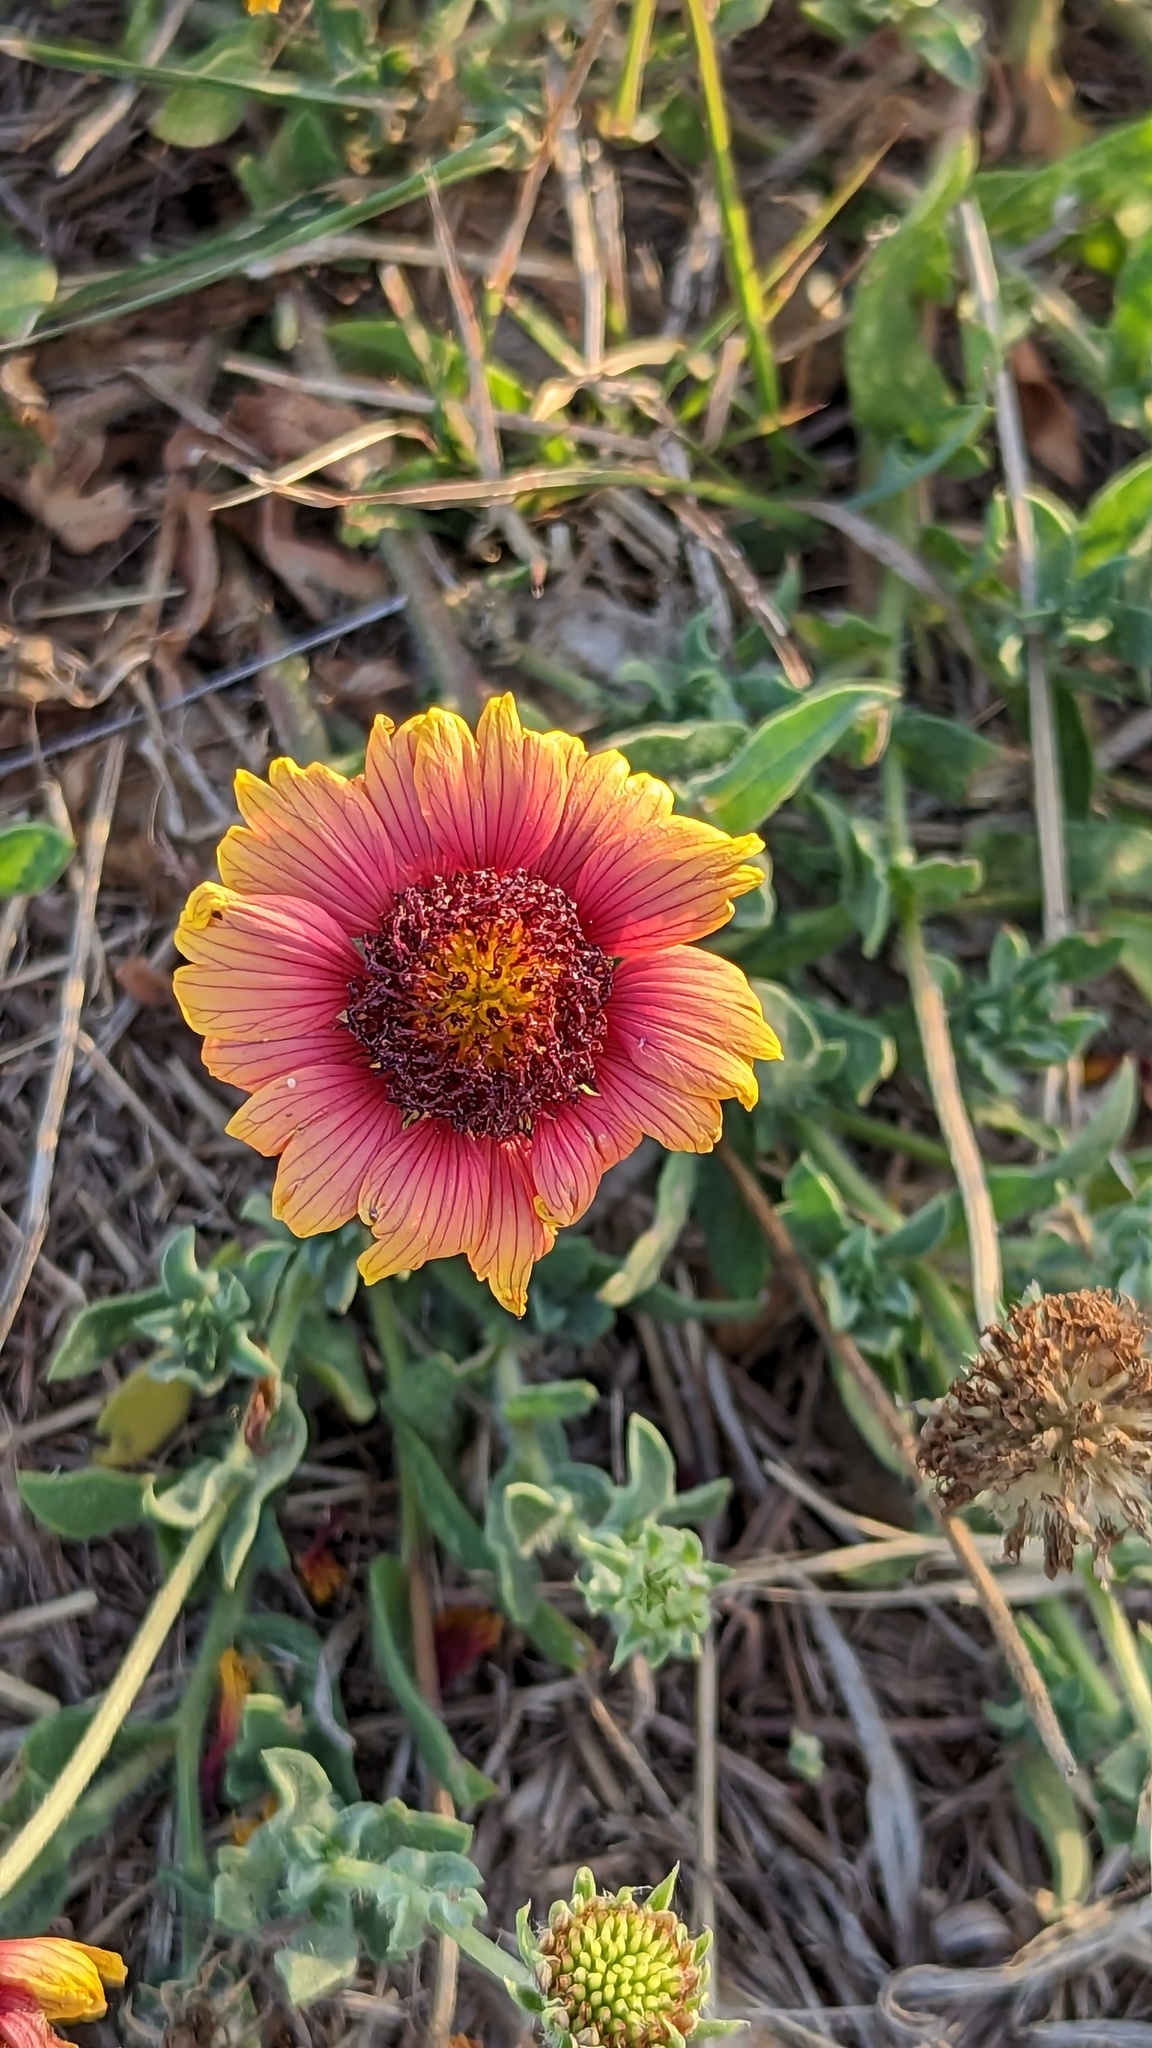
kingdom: Plantae
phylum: Tracheophyta
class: Magnoliopsida
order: Asterales
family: Asteraceae
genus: Gaillardia
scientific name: Gaillardia pulchella
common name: Firewheel
